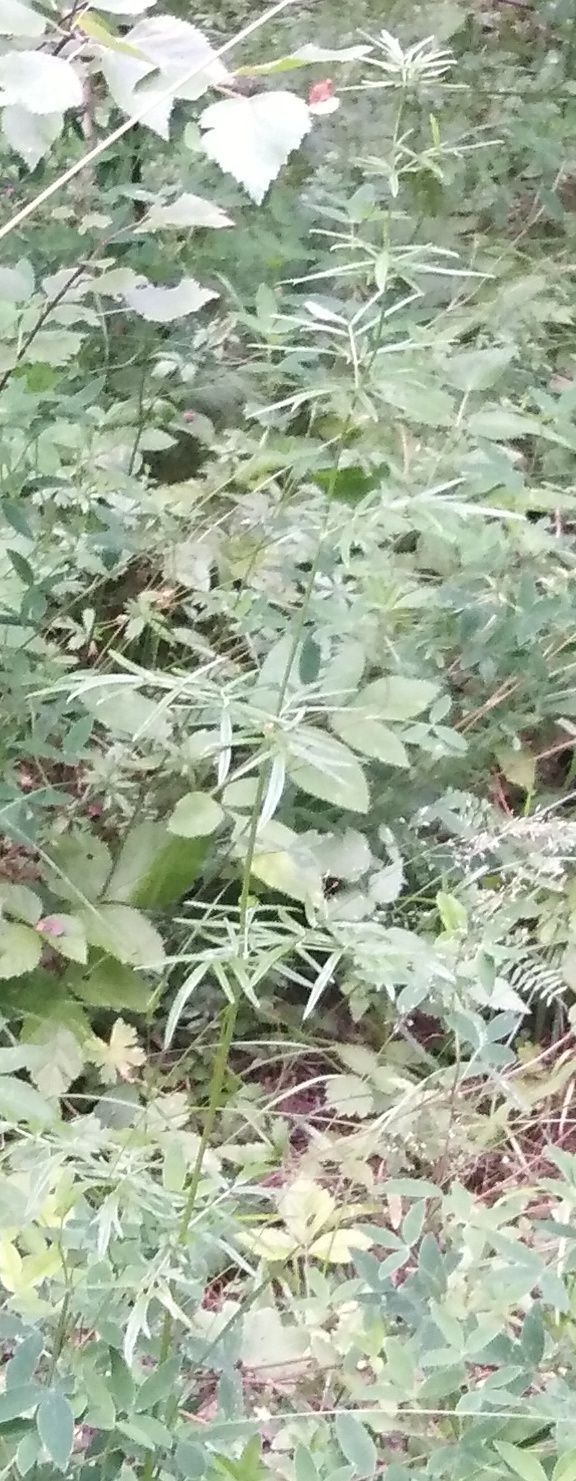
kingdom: Plantae
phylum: Tracheophyta
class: Magnoliopsida
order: Ranunculales
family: Ranunculaceae
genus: Thalictrum
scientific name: Thalictrum lucidum
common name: Shining meadow-rue
